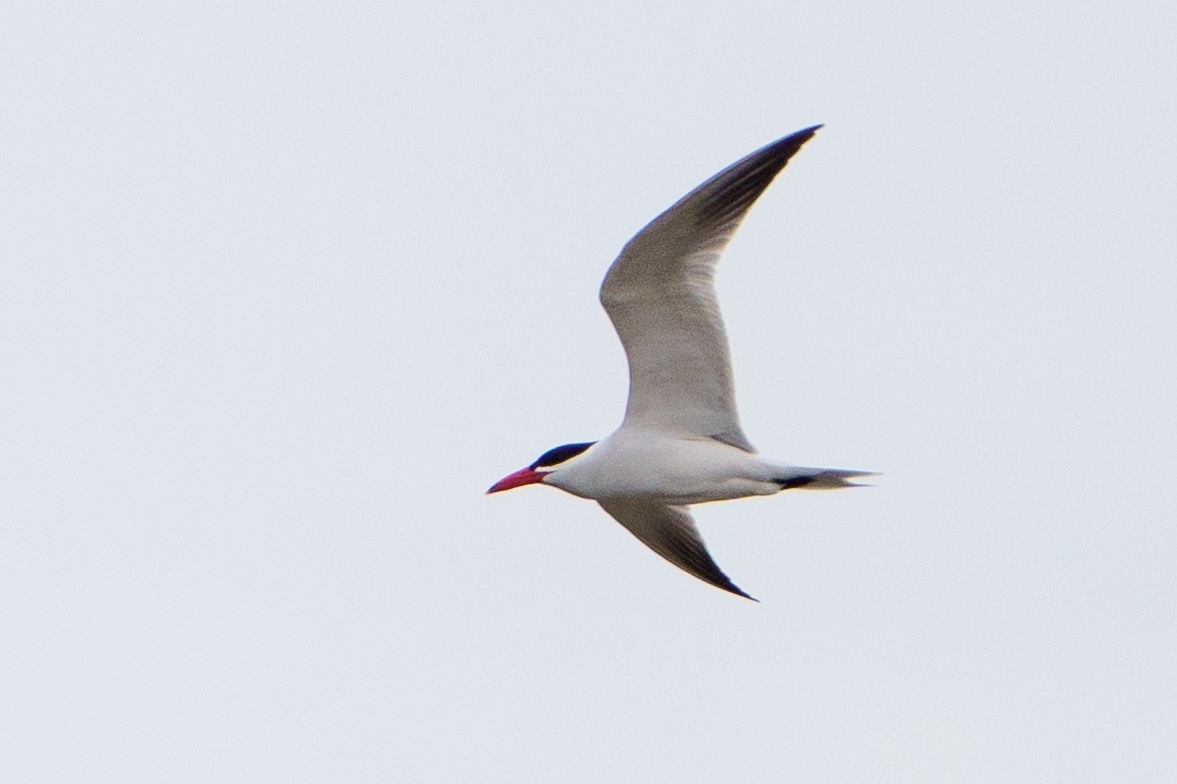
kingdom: Animalia
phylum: Chordata
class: Aves
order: Charadriiformes
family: Laridae
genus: Hydroprogne
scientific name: Hydroprogne caspia
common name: Caspian tern
